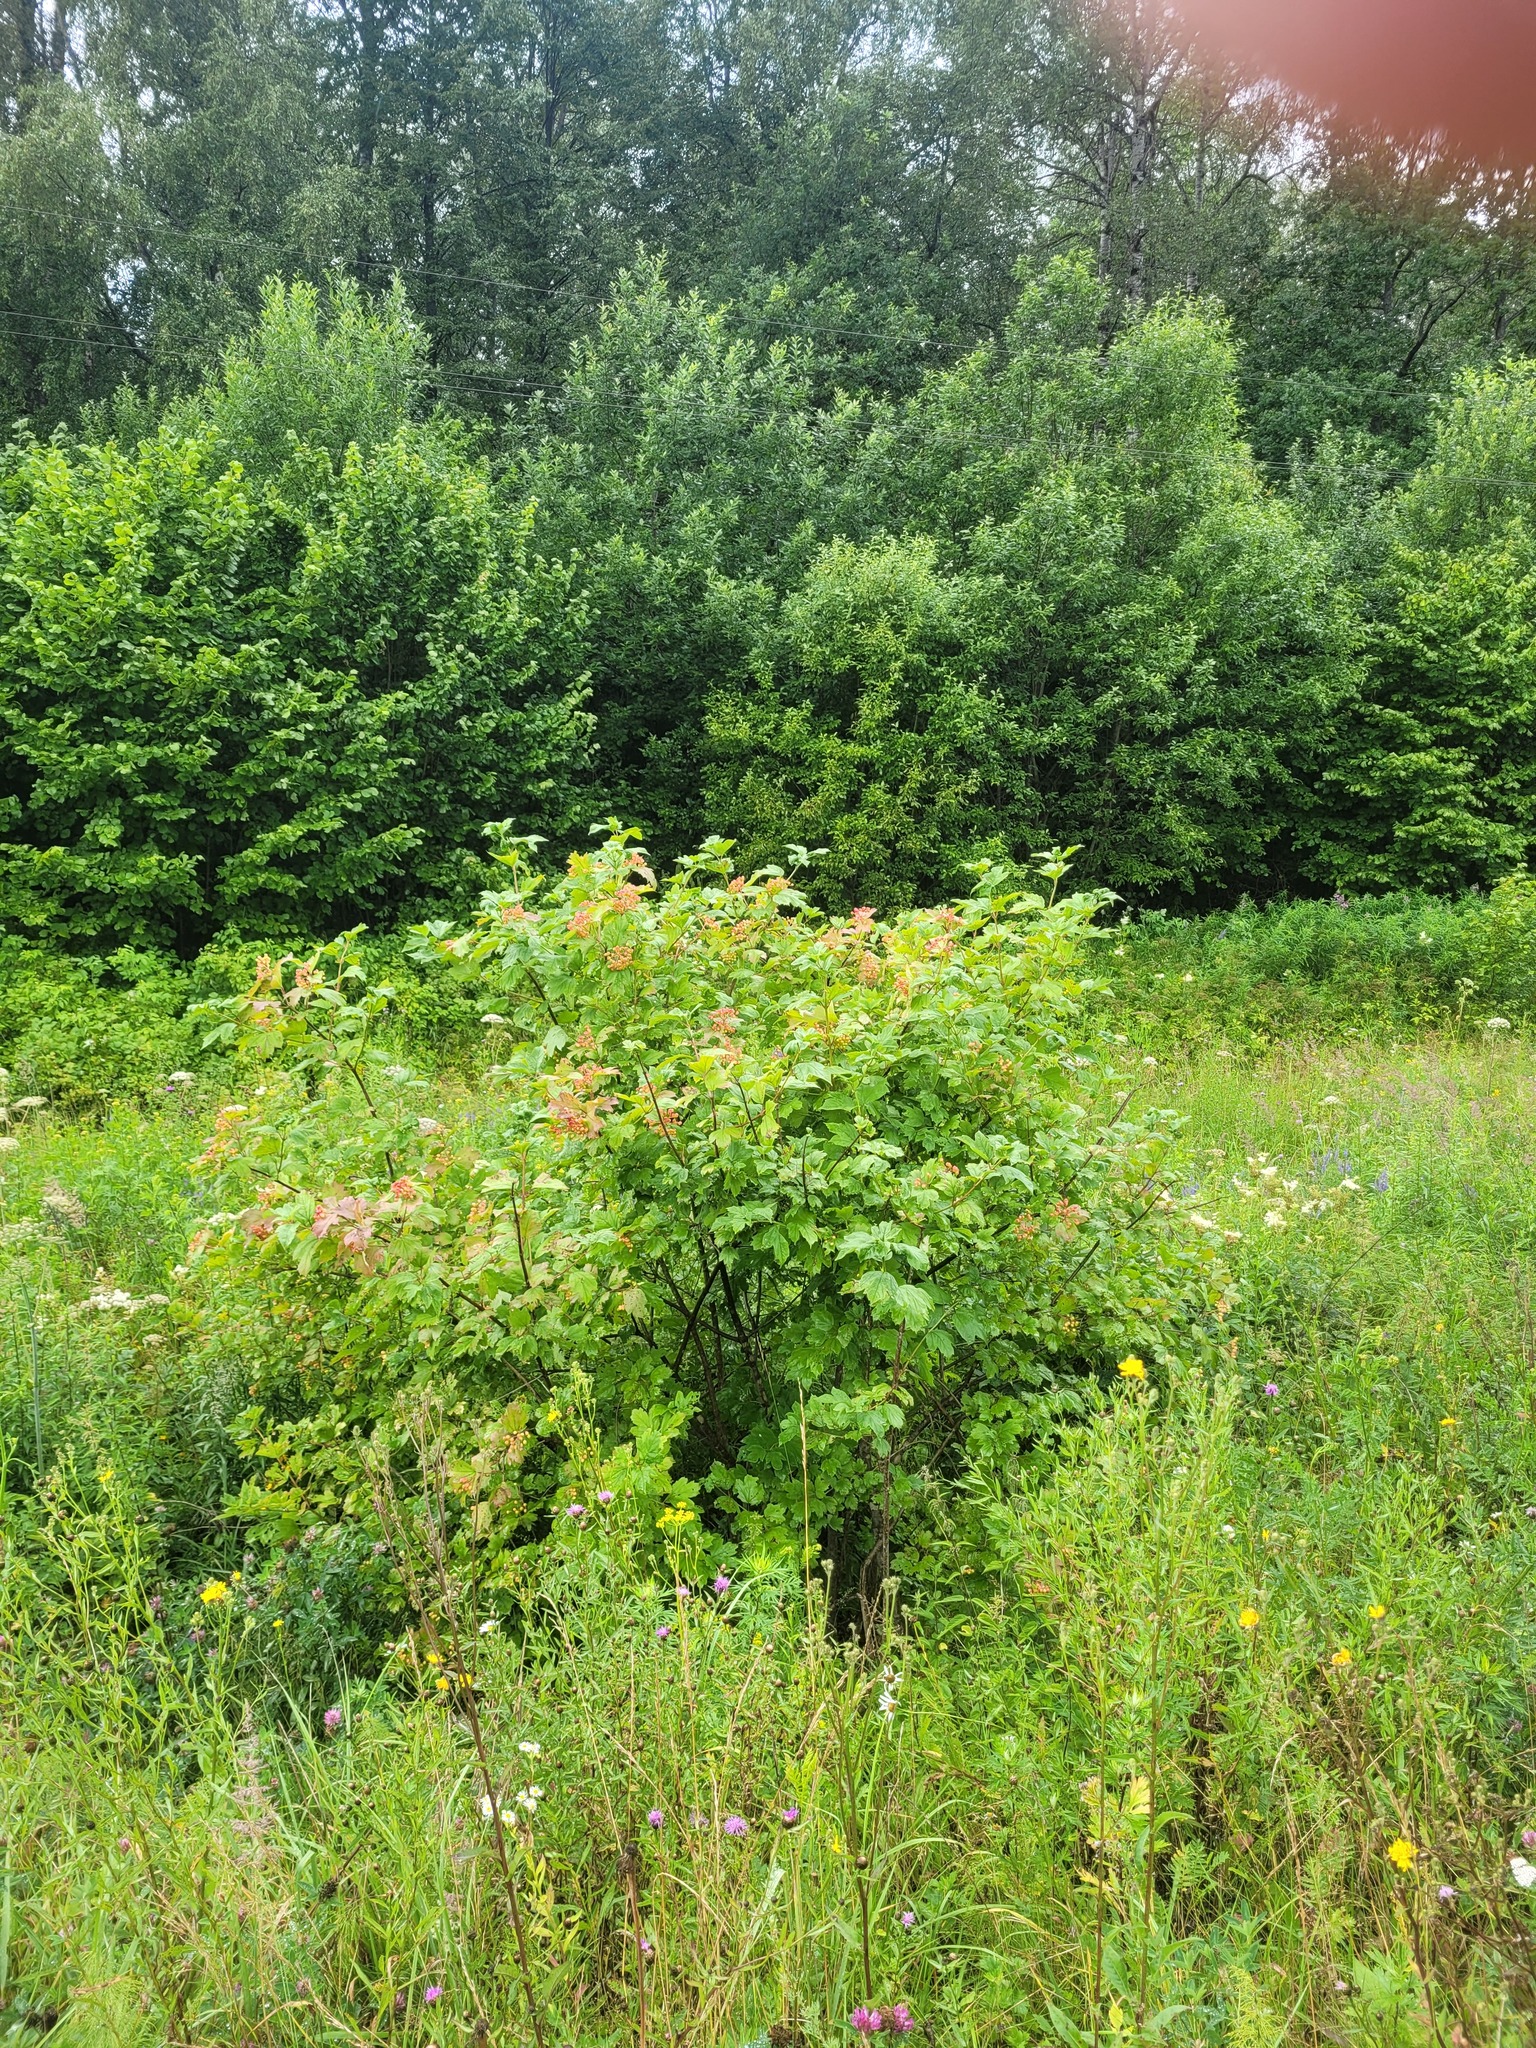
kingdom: Plantae
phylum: Tracheophyta
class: Magnoliopsida
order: Dipsacales
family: Viburnaceae
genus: Viburnum
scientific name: Viburnum opulus
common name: Guelder-rose
